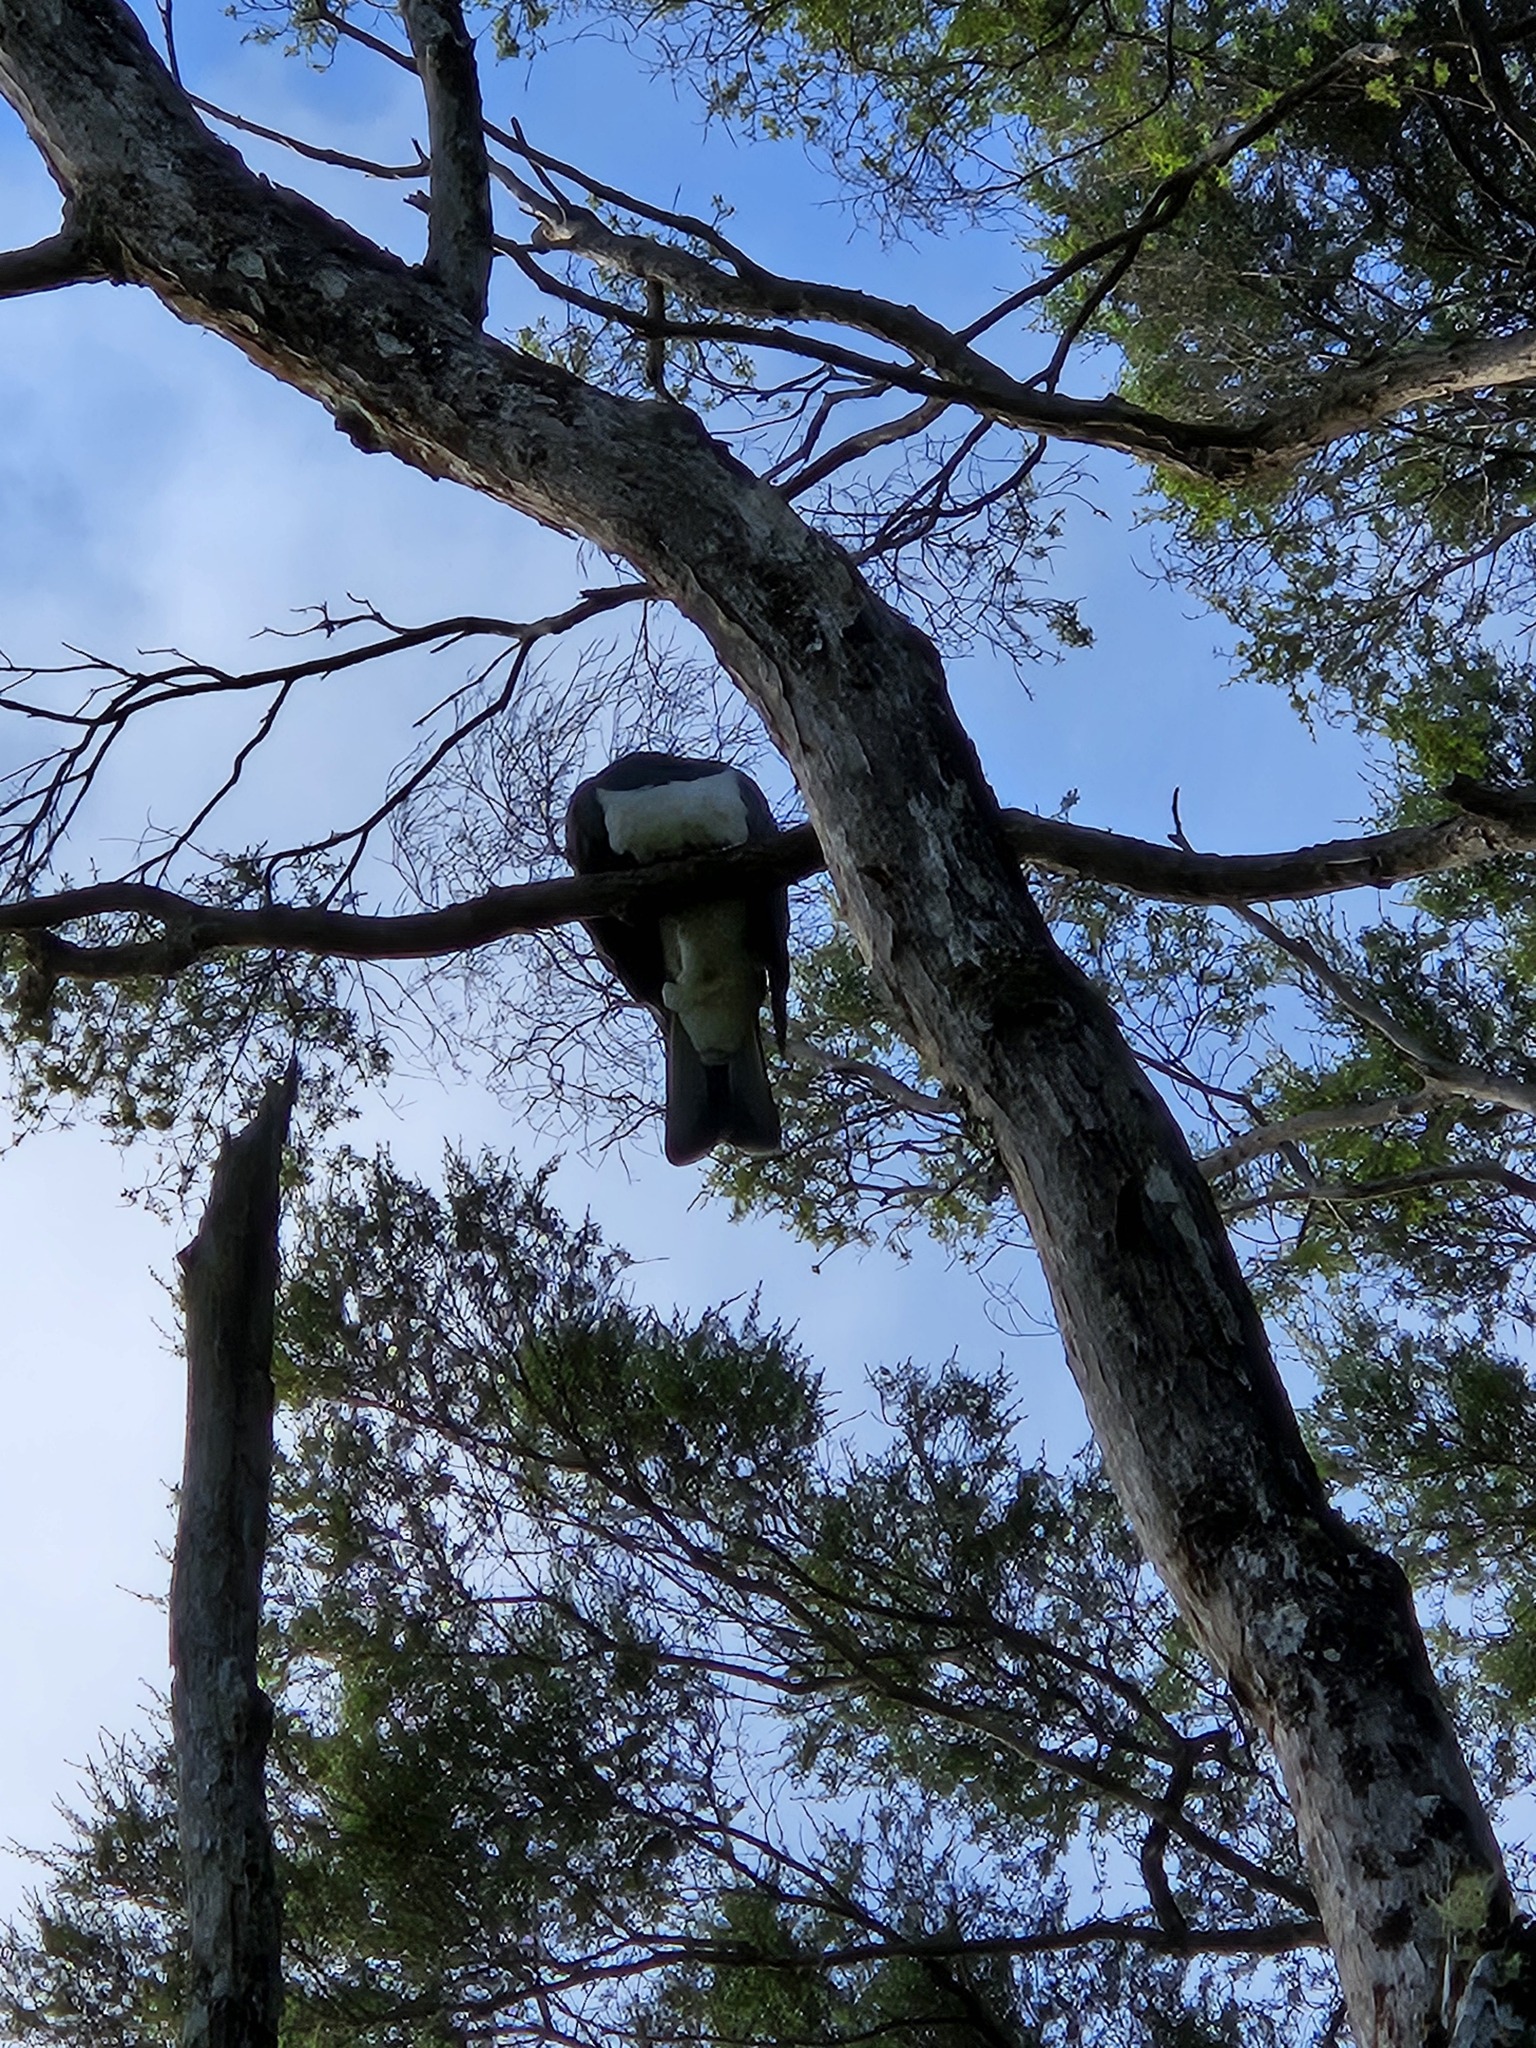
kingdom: Animalia
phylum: Chordata
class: Aves
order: Columbiformes
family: Columbidae
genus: Hemiphaga
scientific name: Hemiphaga novaeseelandiae
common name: New zealand pigeon
